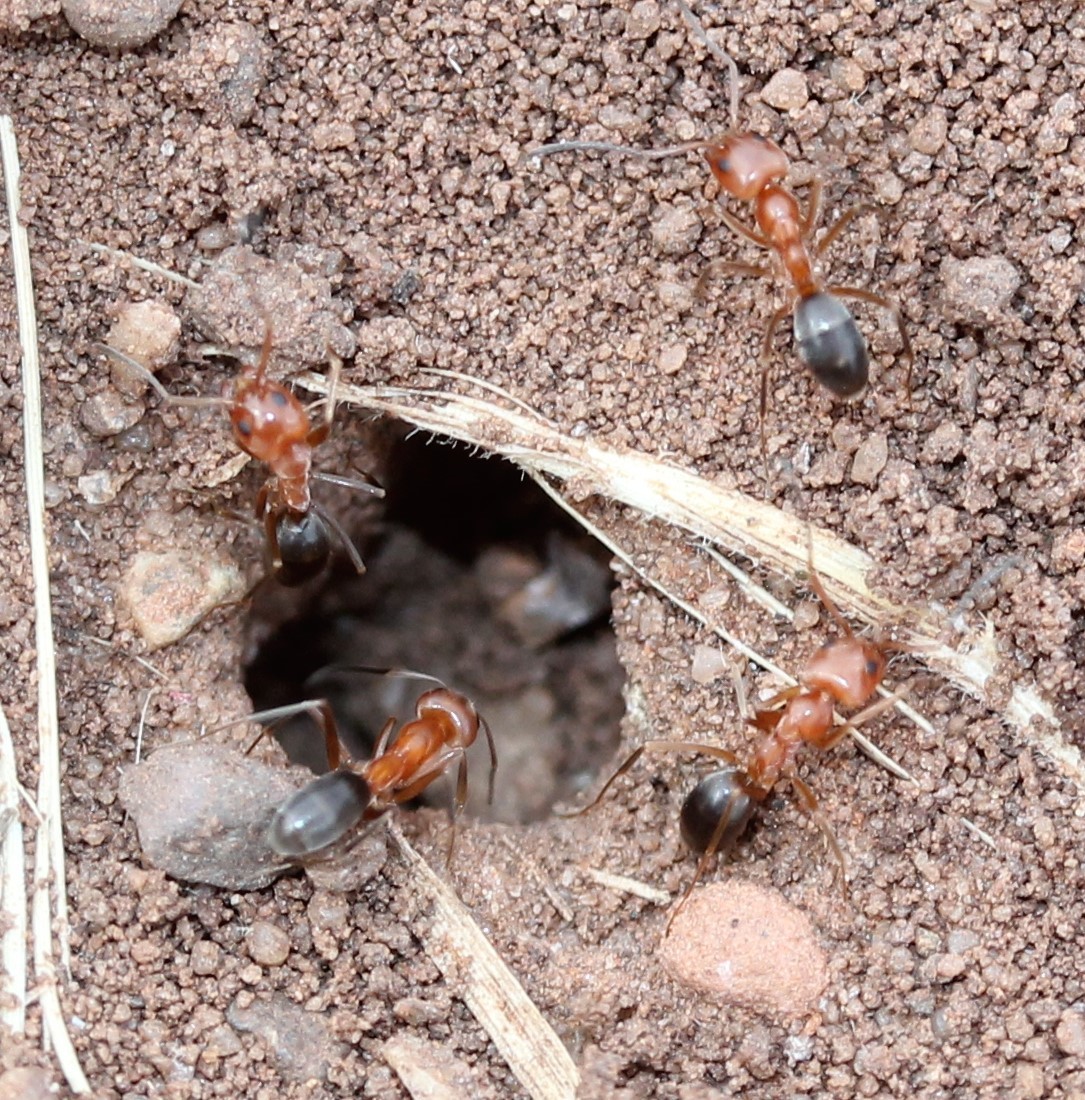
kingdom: Animalia
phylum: Arthropoda
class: Insecta
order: Hymenoptera
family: Formicidae
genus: Dorymyrmex
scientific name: Dorymyrmex bicolor
